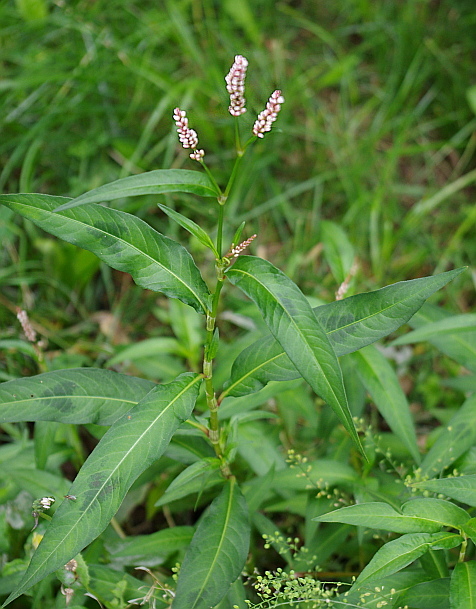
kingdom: Plantae
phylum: Tracheophyta
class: Magnoliopsida
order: Caryophyllales
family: Polygonaceae
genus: Persicaria
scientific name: Persicaria maculosa
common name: Redshank
